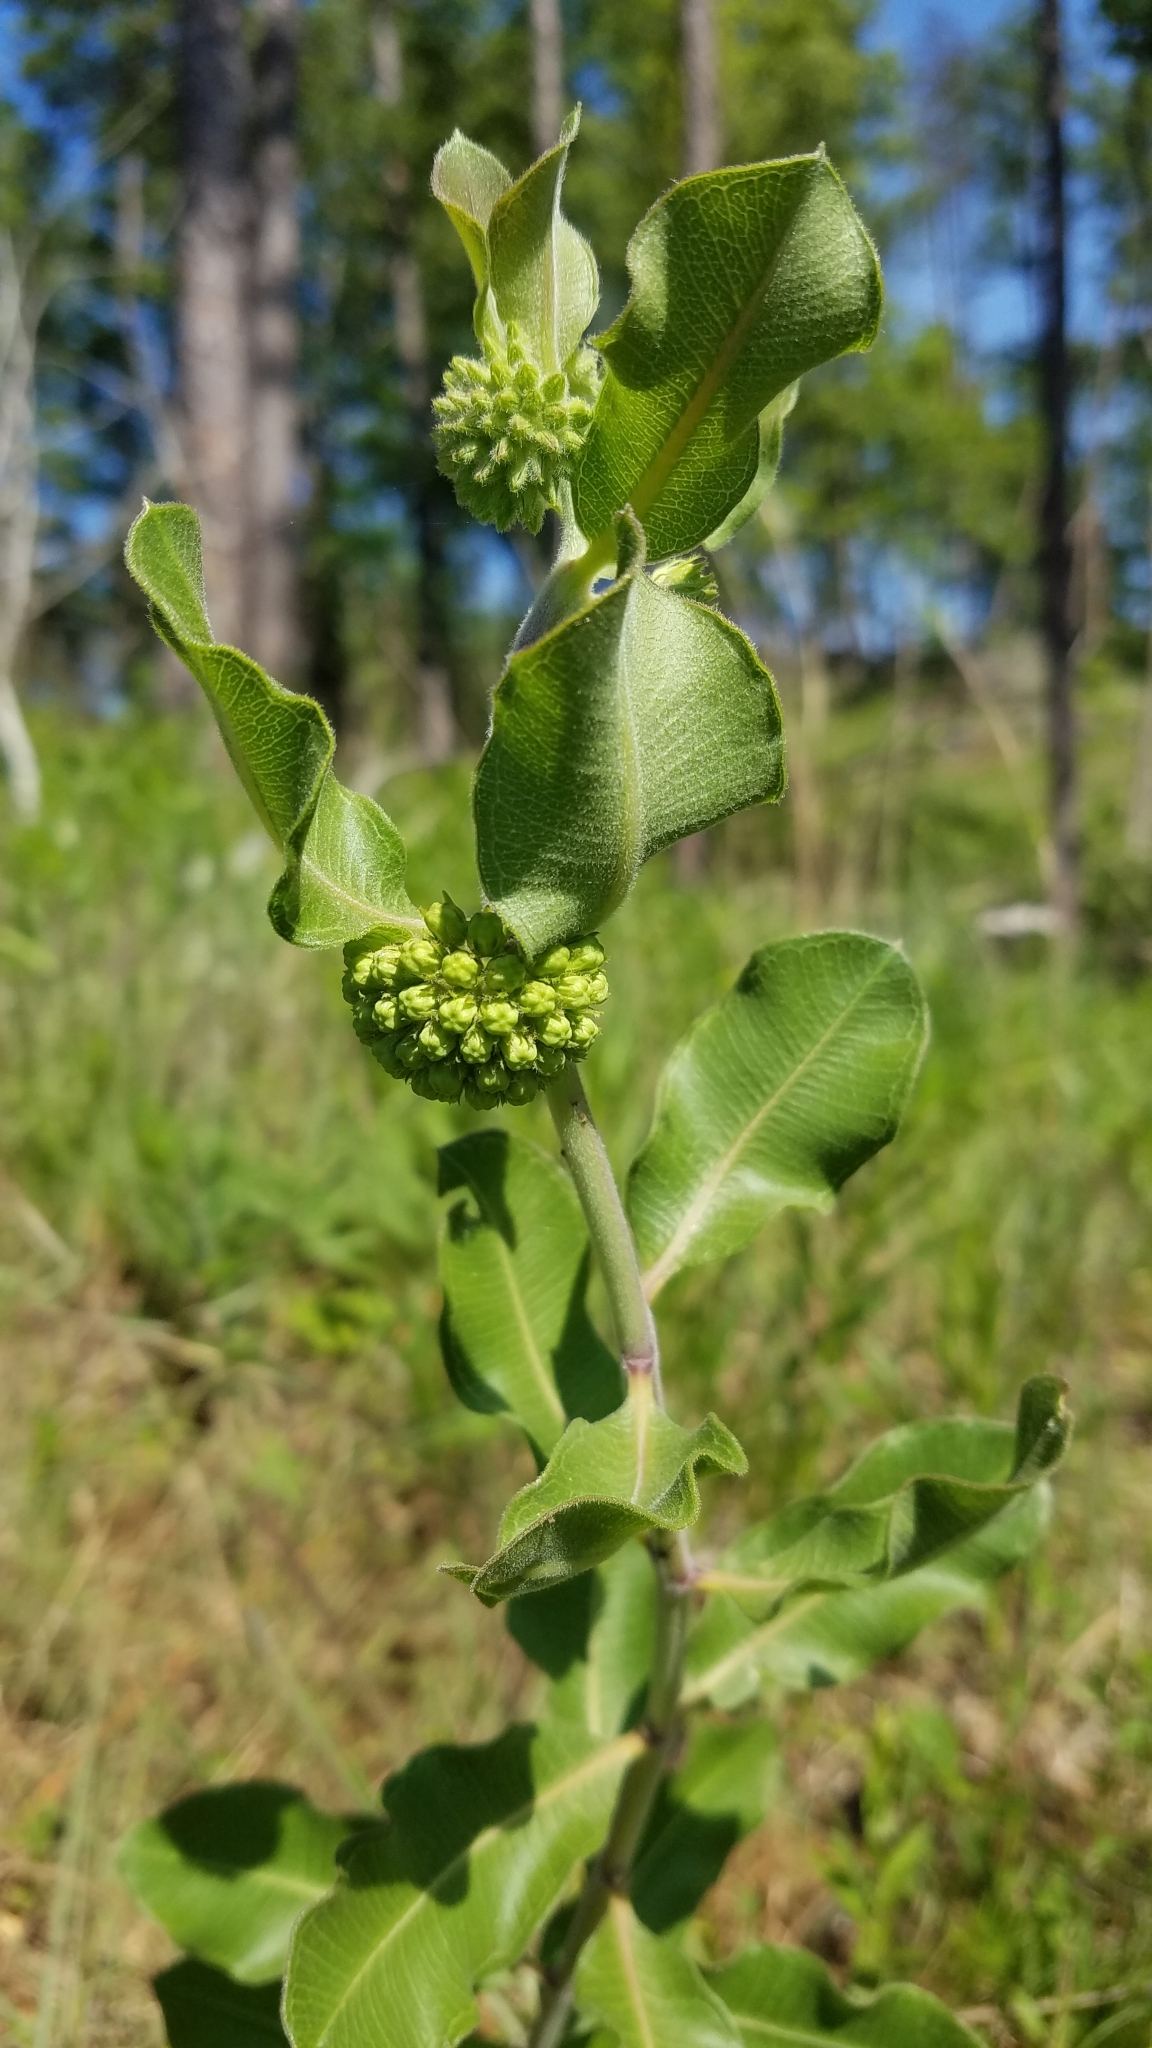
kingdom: Plantae
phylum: Tracheophyta
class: Magnoliopsida
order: Gentianales
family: Apocynaceae
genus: Asclepias
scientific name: Asclepias viridiflora
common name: Green comet milkweed
